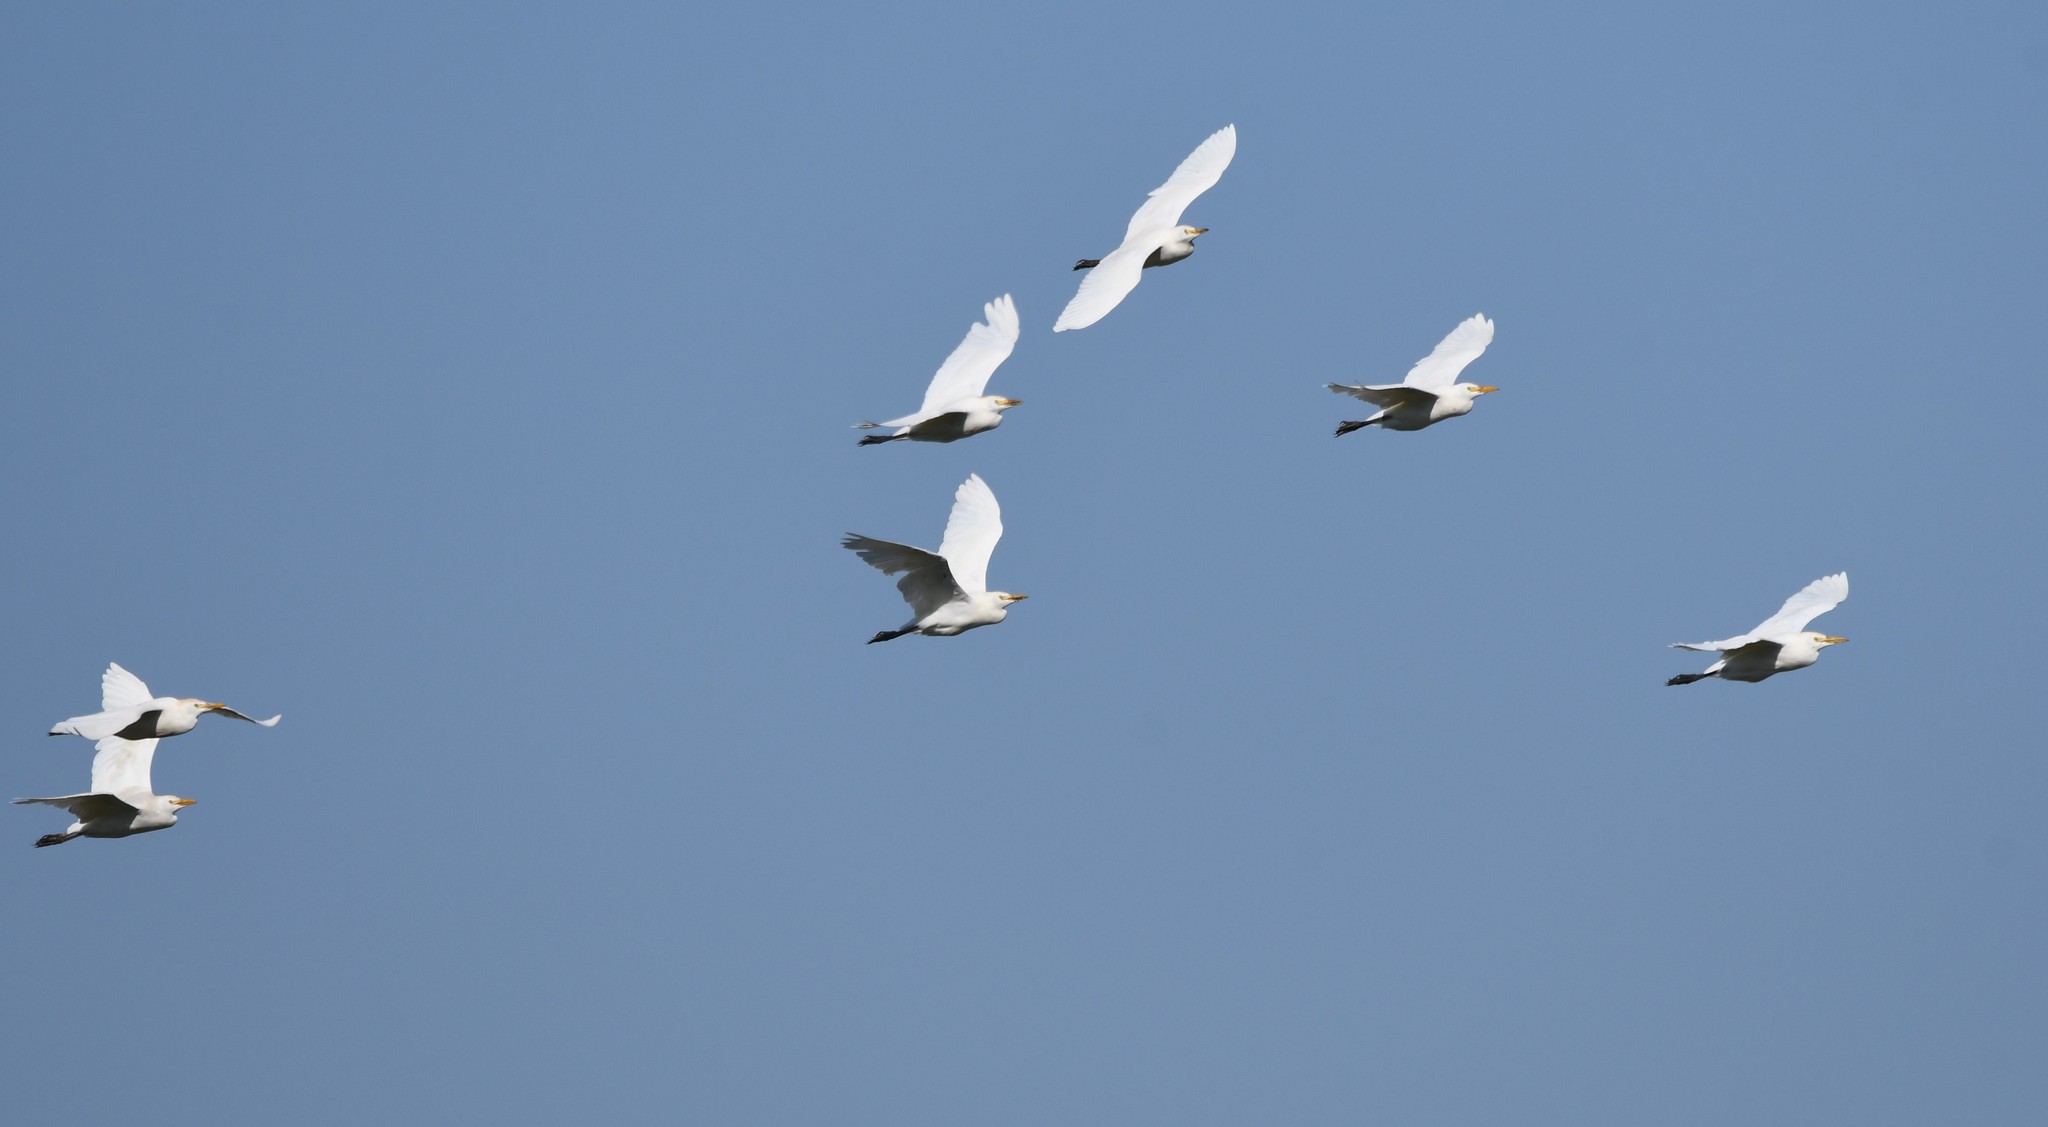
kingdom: Animalia
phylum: Chordata
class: Aves
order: Pelecaniformes
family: Ardeidae
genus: Bubulcus
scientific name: Bubulcus ibis
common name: Cattle egret
